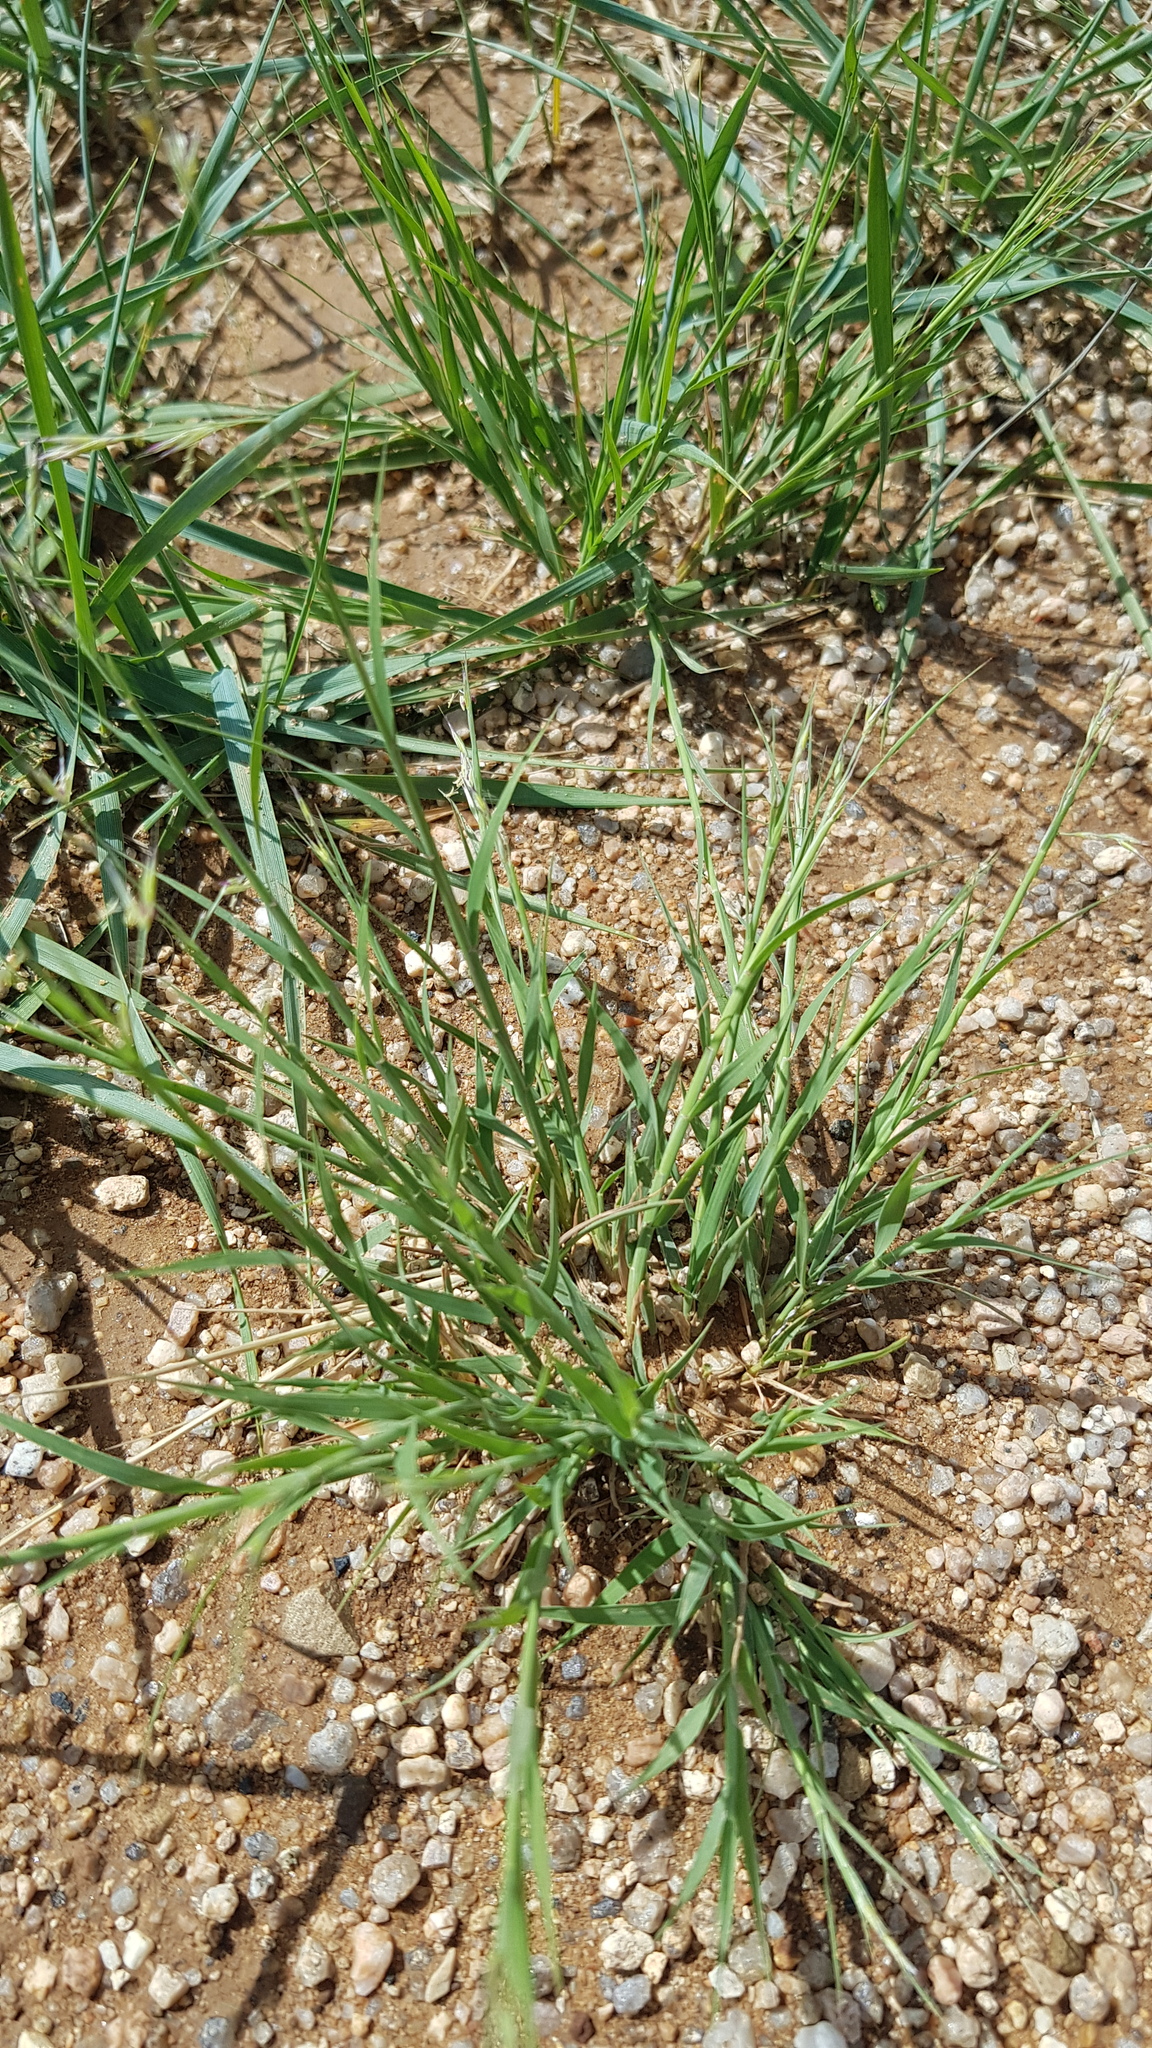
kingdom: Plantae
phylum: Tracheophyta
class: Liliopsida
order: Poales
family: Poaceae
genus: Cleistogenes
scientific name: Cleistogenes squarrosa
